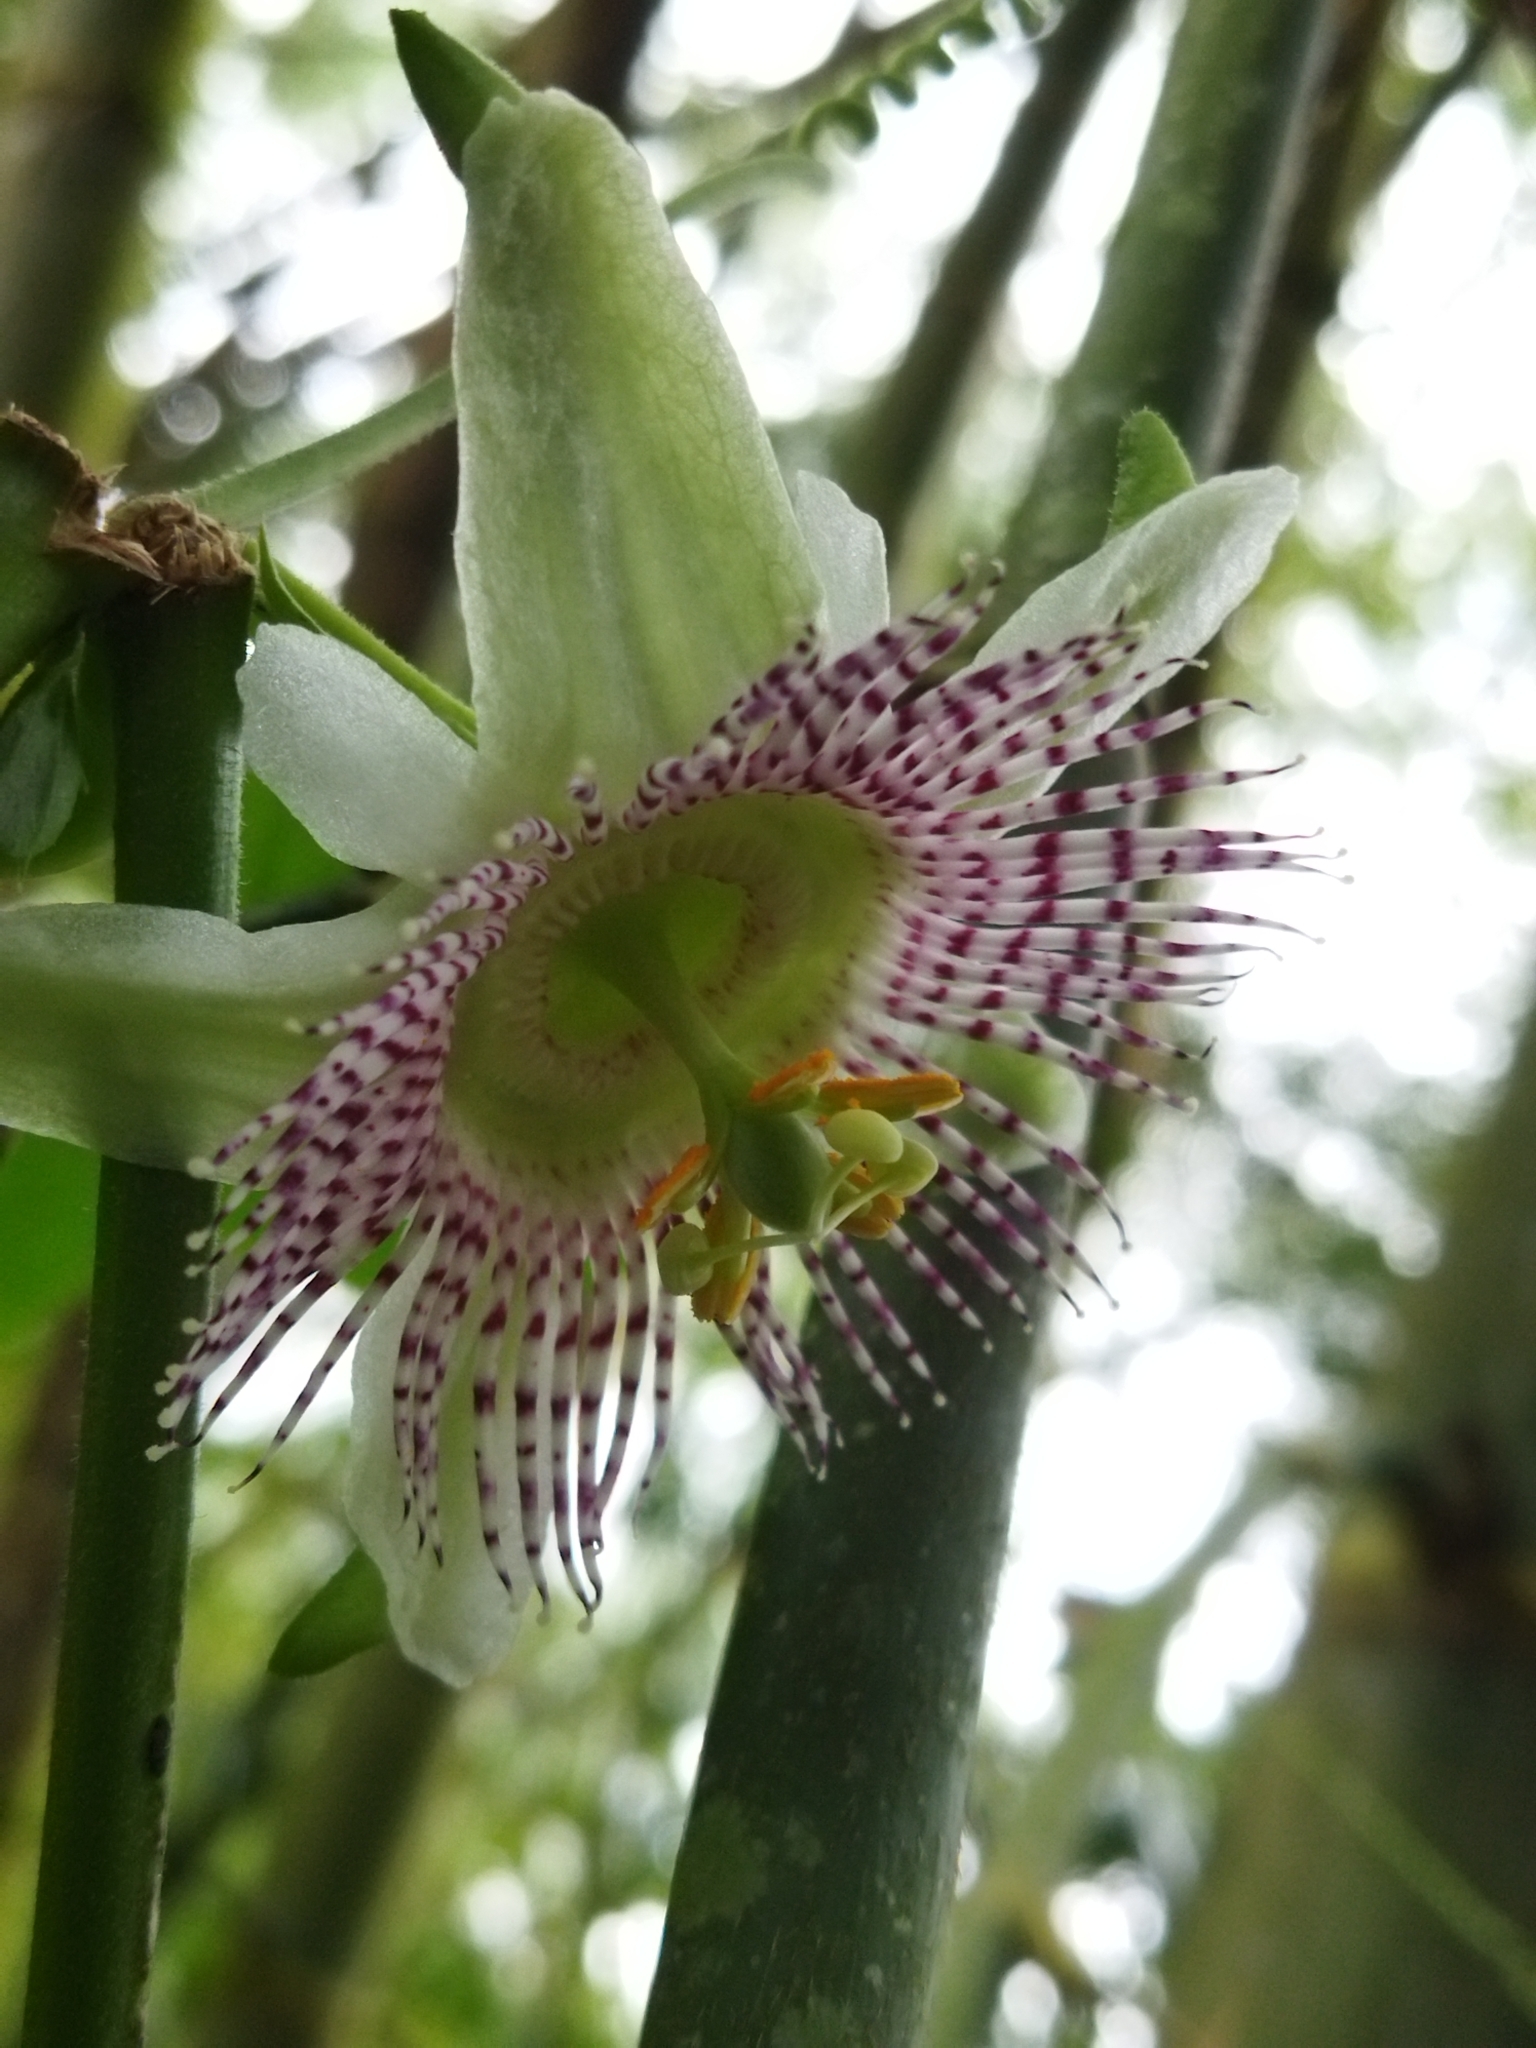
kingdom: Plantae
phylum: Tracheophyta
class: Magnoliopsida
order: Malpighiales
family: Passifloraceae
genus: Passiflora
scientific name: Passiflora adenopoda
